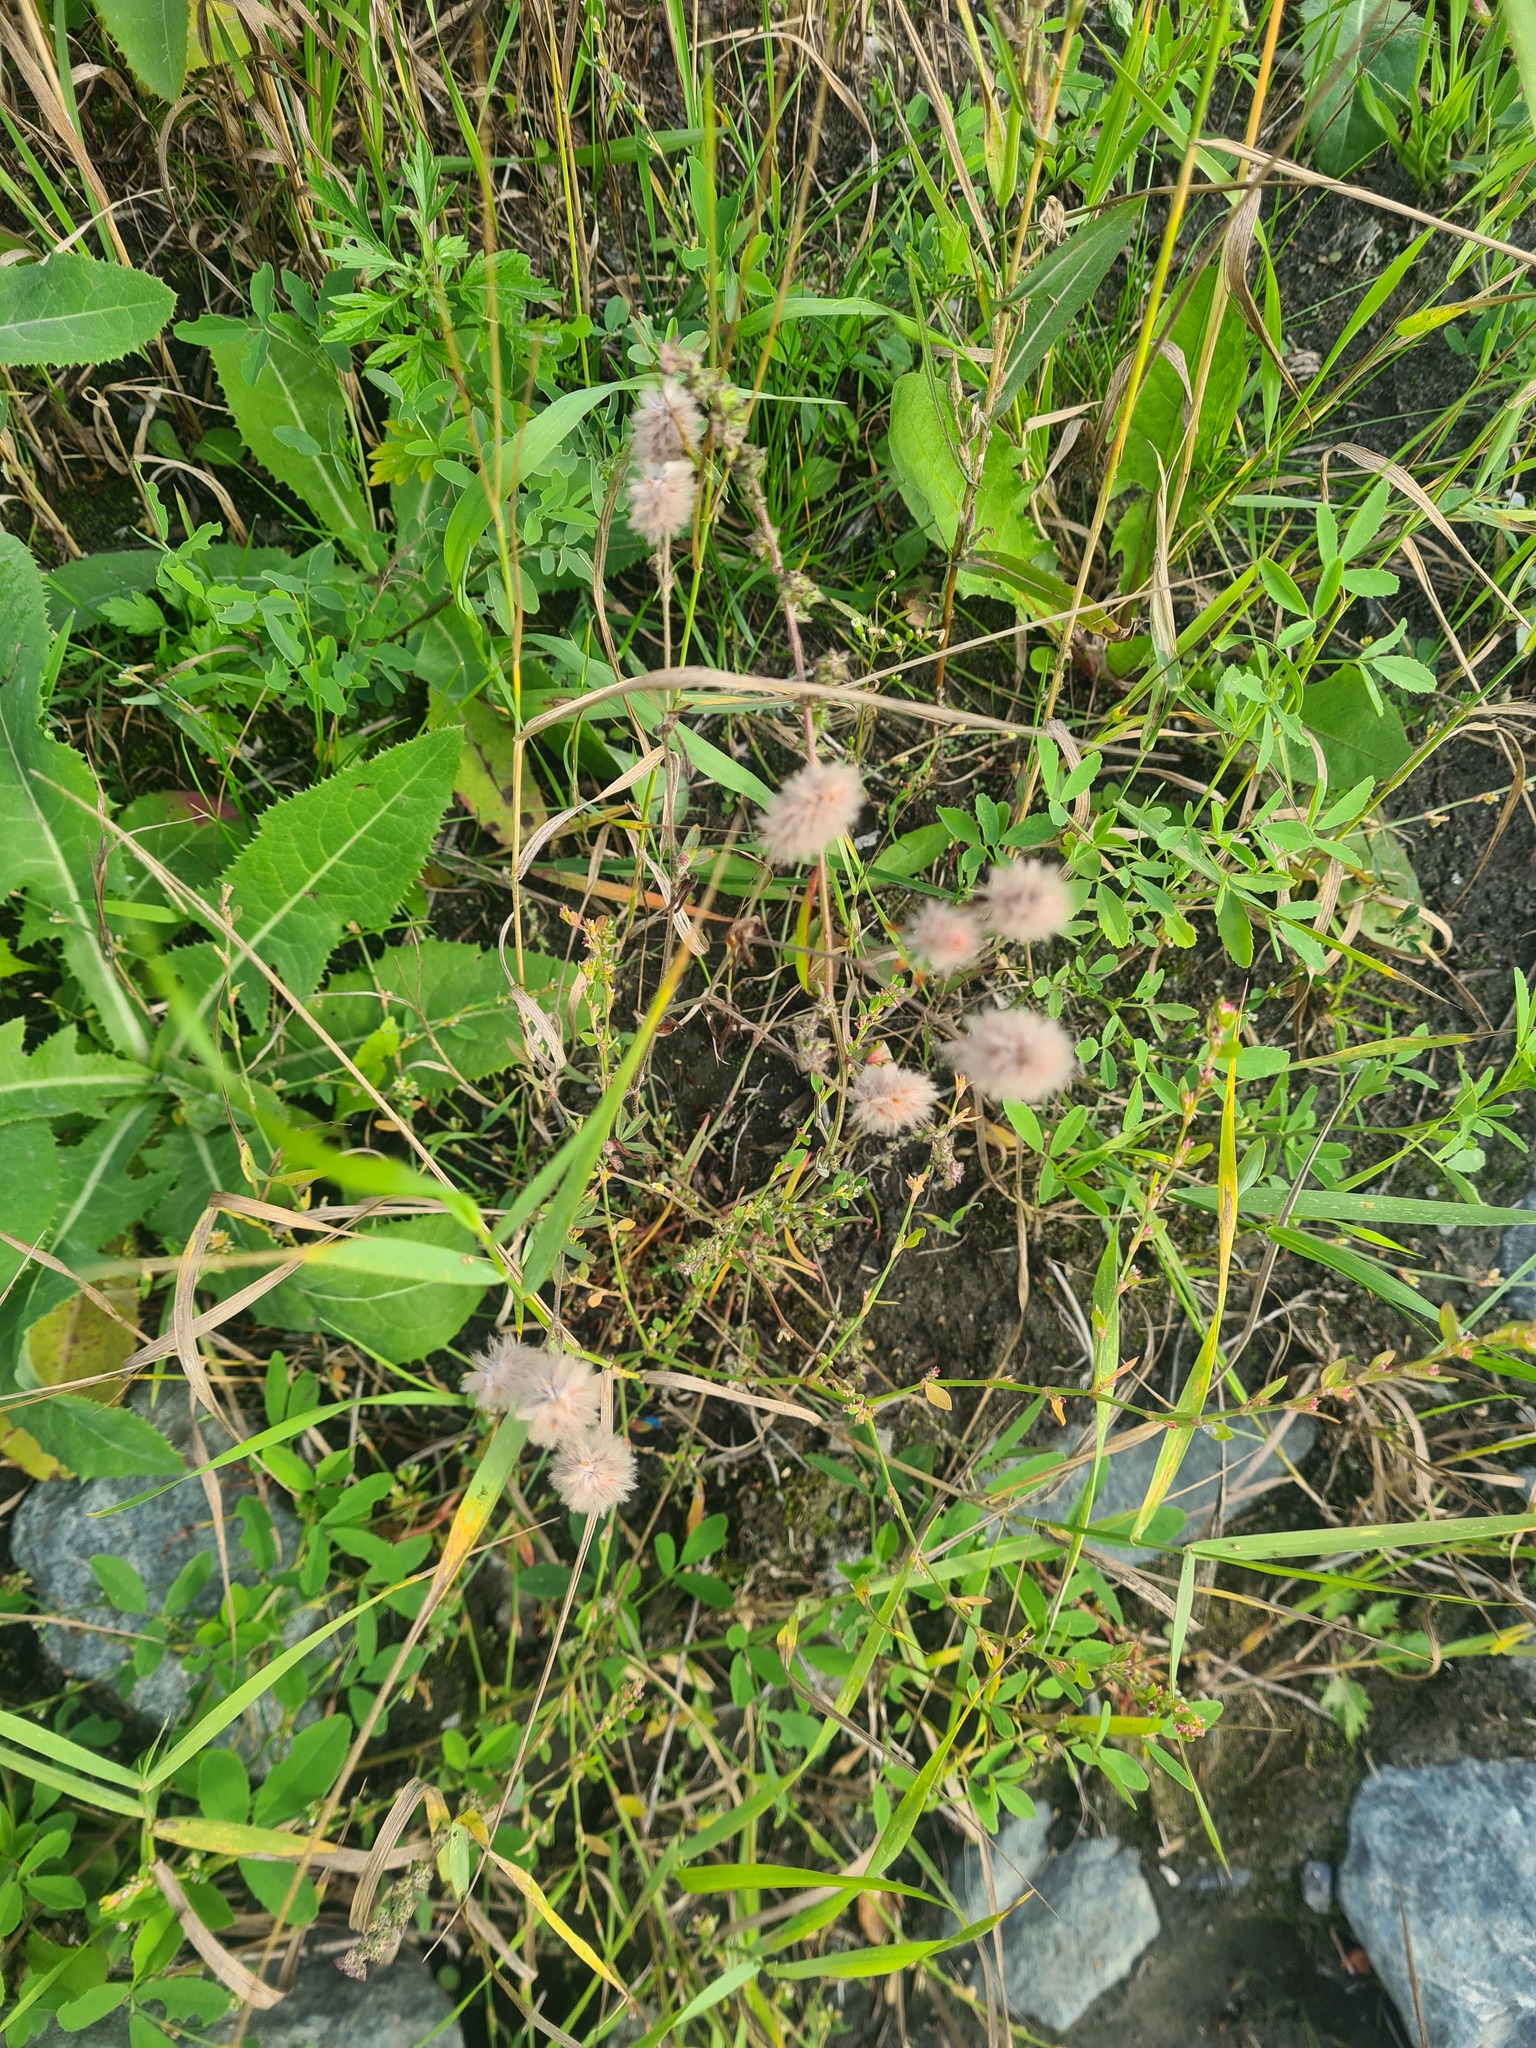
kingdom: Plantae
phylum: Tracheophyta
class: Magnoliopsida
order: Fabales
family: Fabaceae
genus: Trifolium
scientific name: Trifolium arvense
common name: Hare's-foot clover
